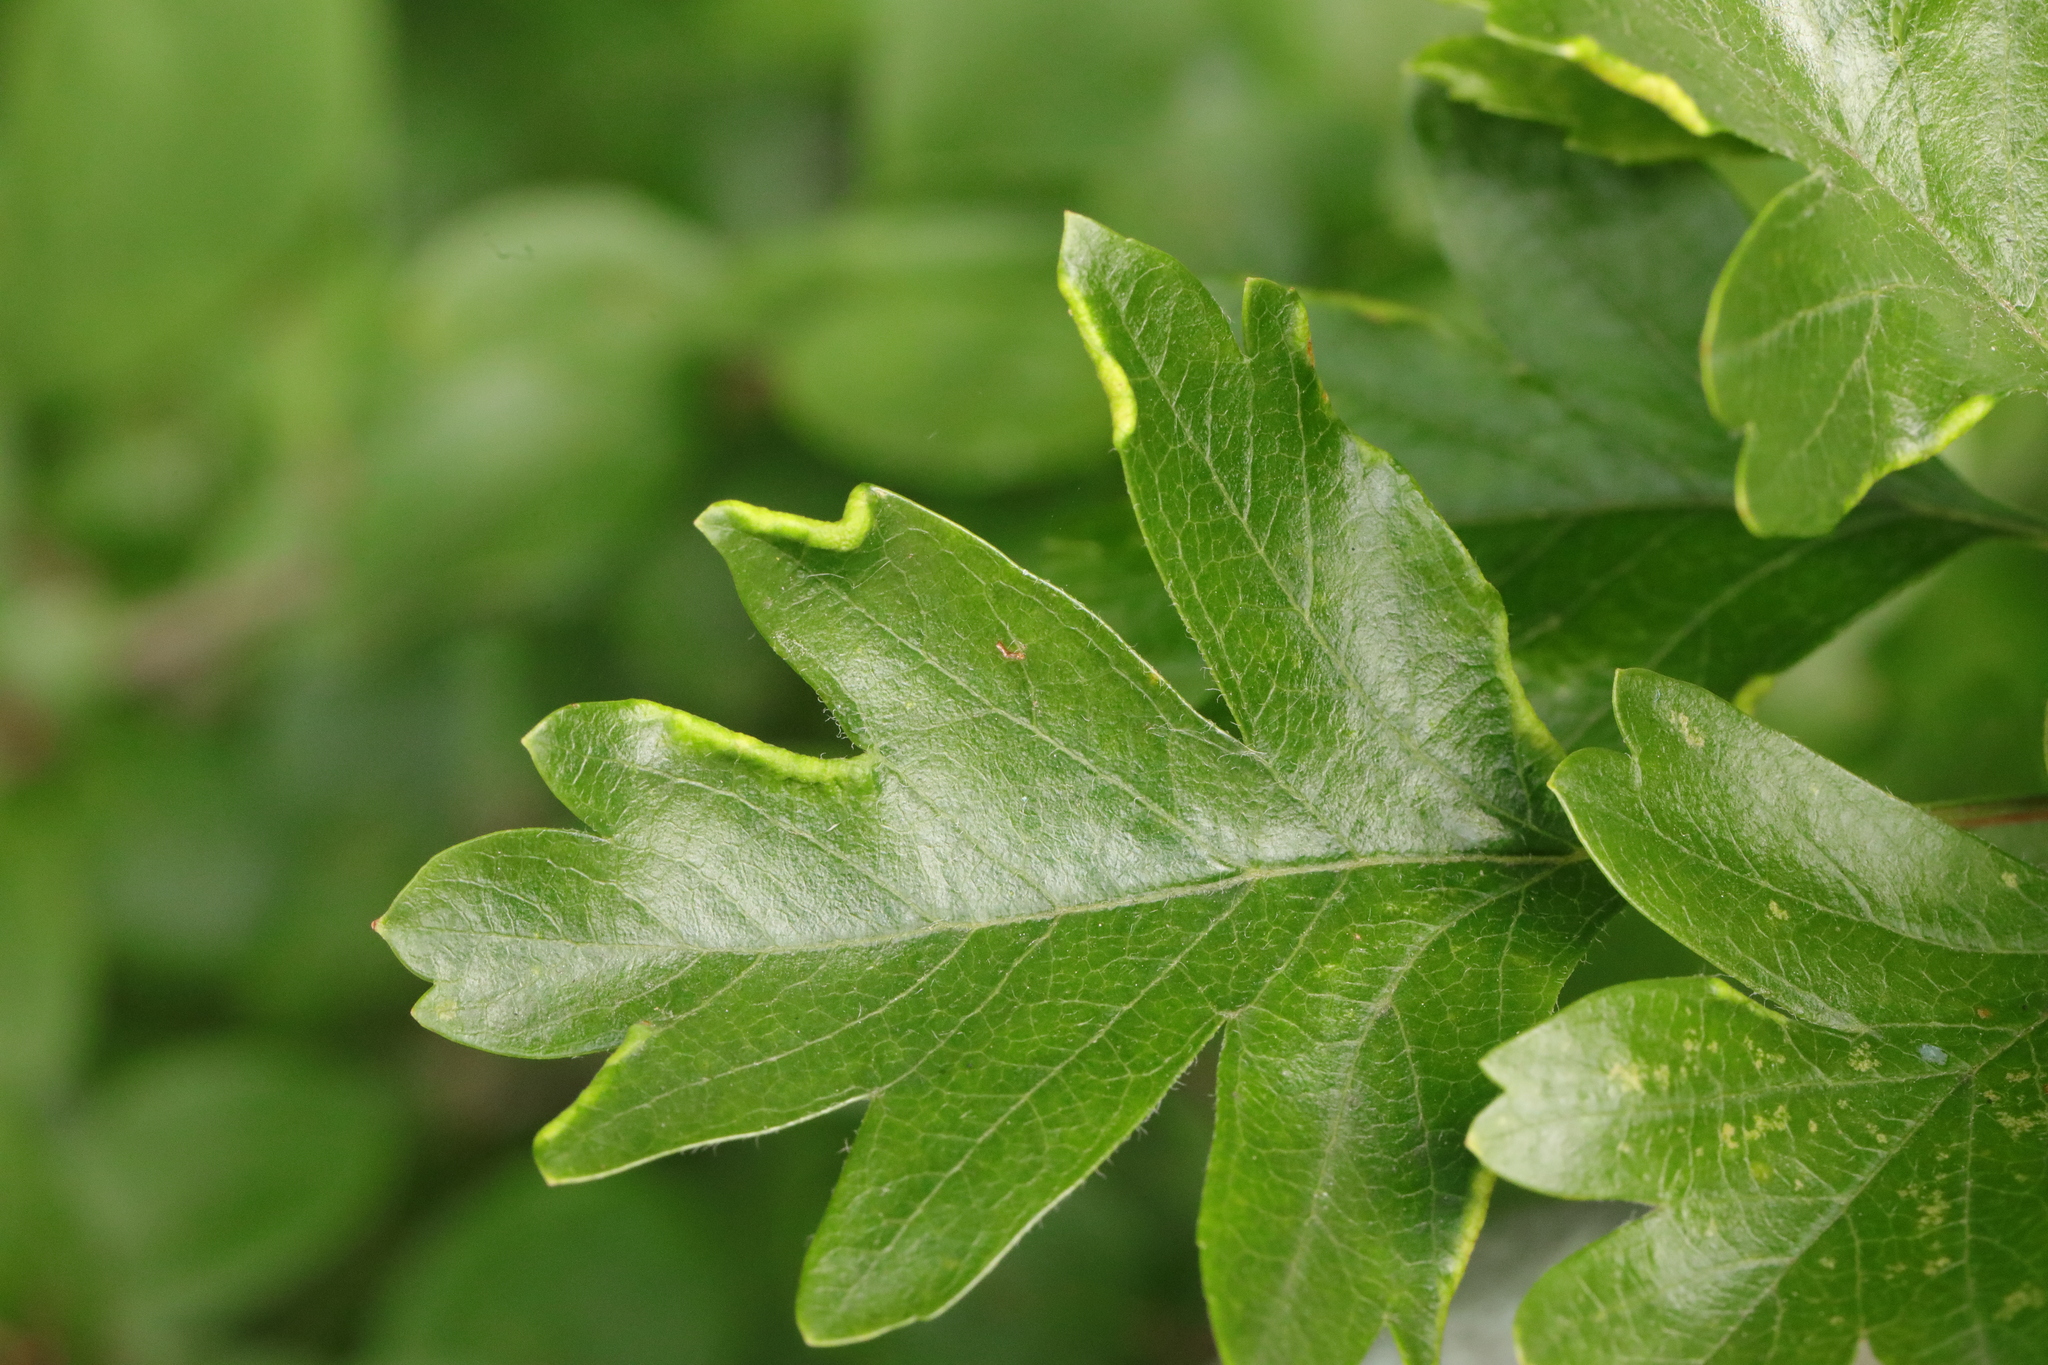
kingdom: Animalia
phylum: Arthropoda
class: Arachnida
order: Trombidiformes
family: Eriophyidae
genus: Phyllocoptes
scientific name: Phyllocoptes goniothorax
